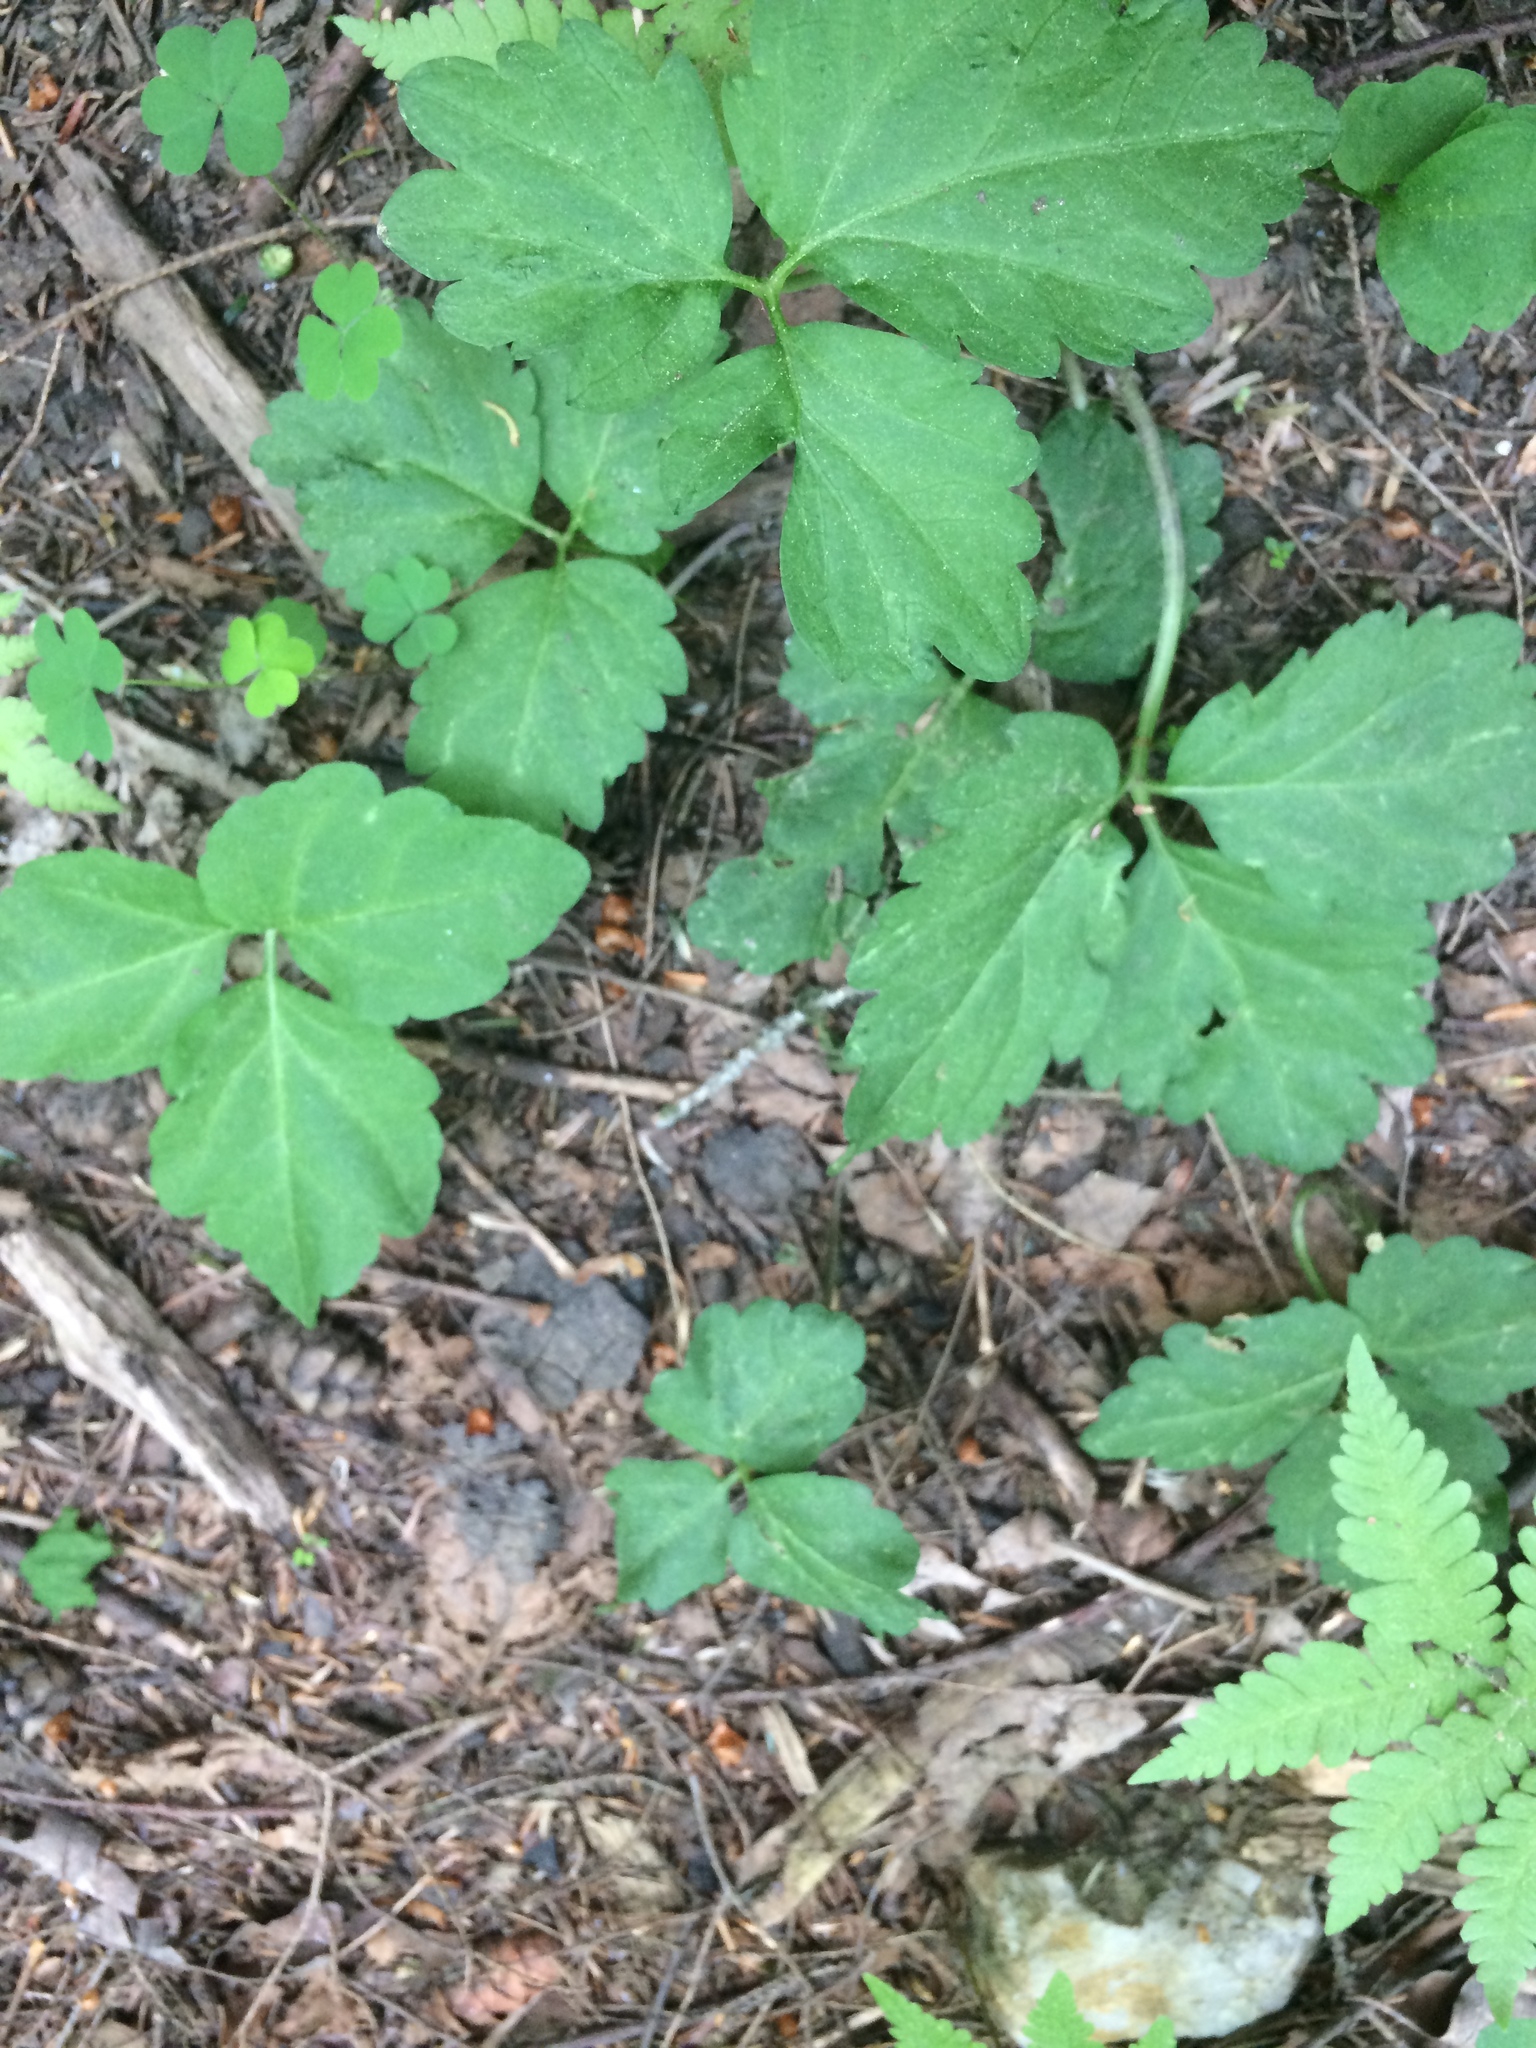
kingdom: Plantae
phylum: Tracheophyta
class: Magnoliopsida
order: Brassicales
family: Brassicaceae
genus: Cardamine
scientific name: Cardamine diphylla
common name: Broad-leaved toothwort
